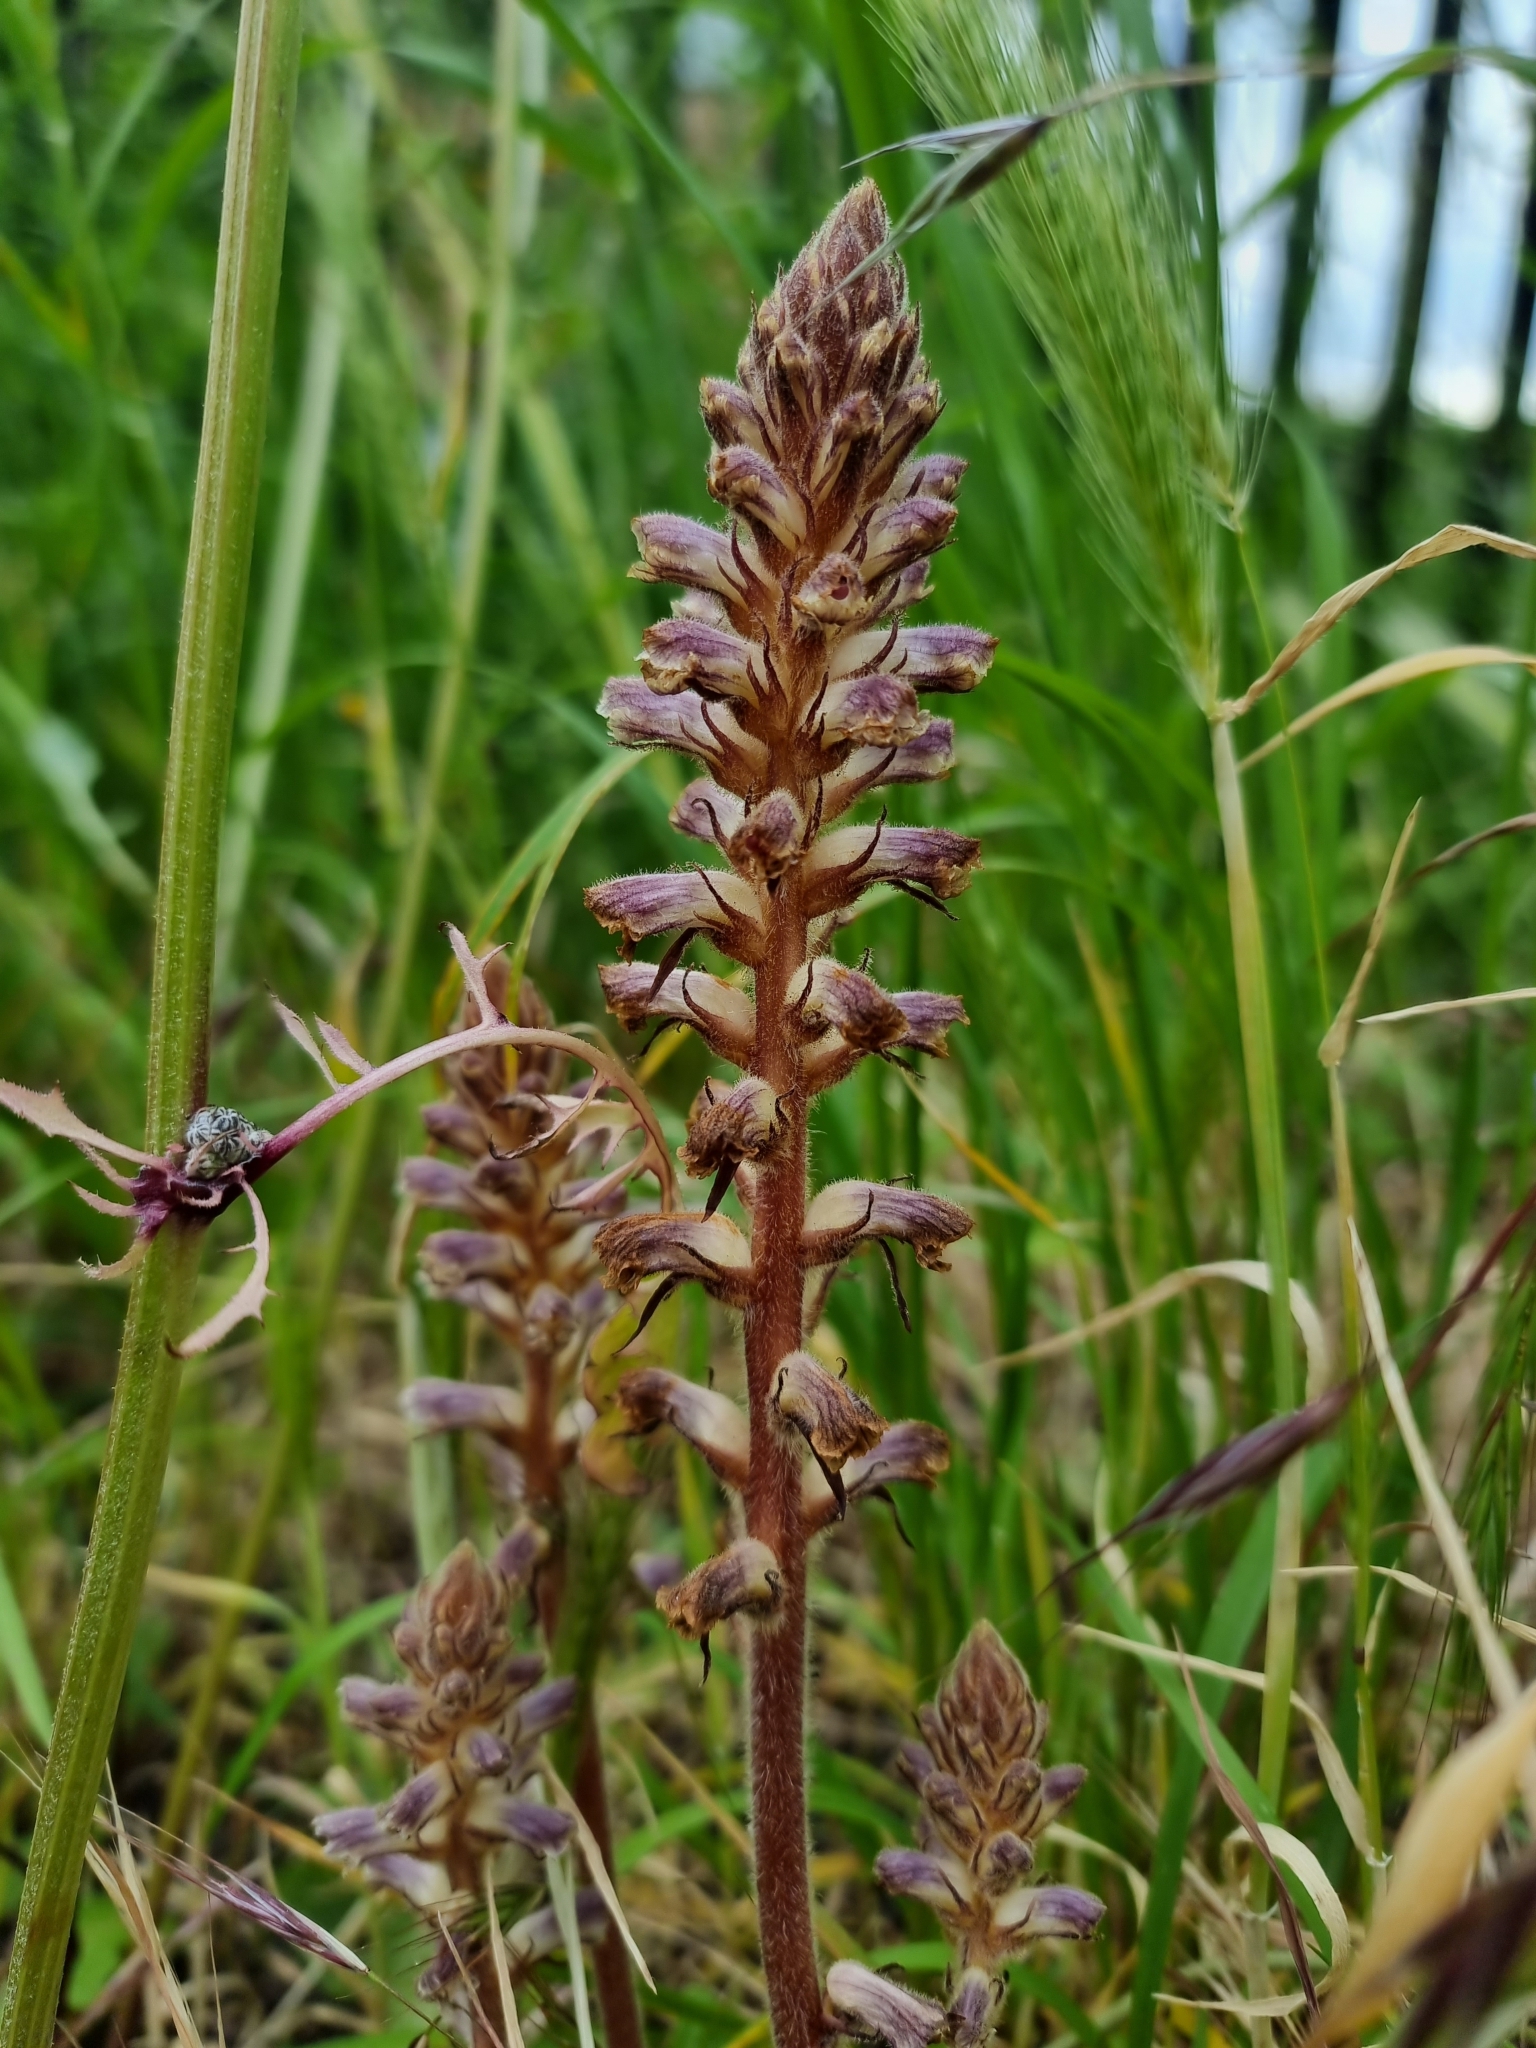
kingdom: Plantae
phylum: Tracheophyta
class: Magnoliopsida
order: Lamiales
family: Orobanchaceae
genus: Orobanche
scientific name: Orobanche minor
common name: Common broomrape
